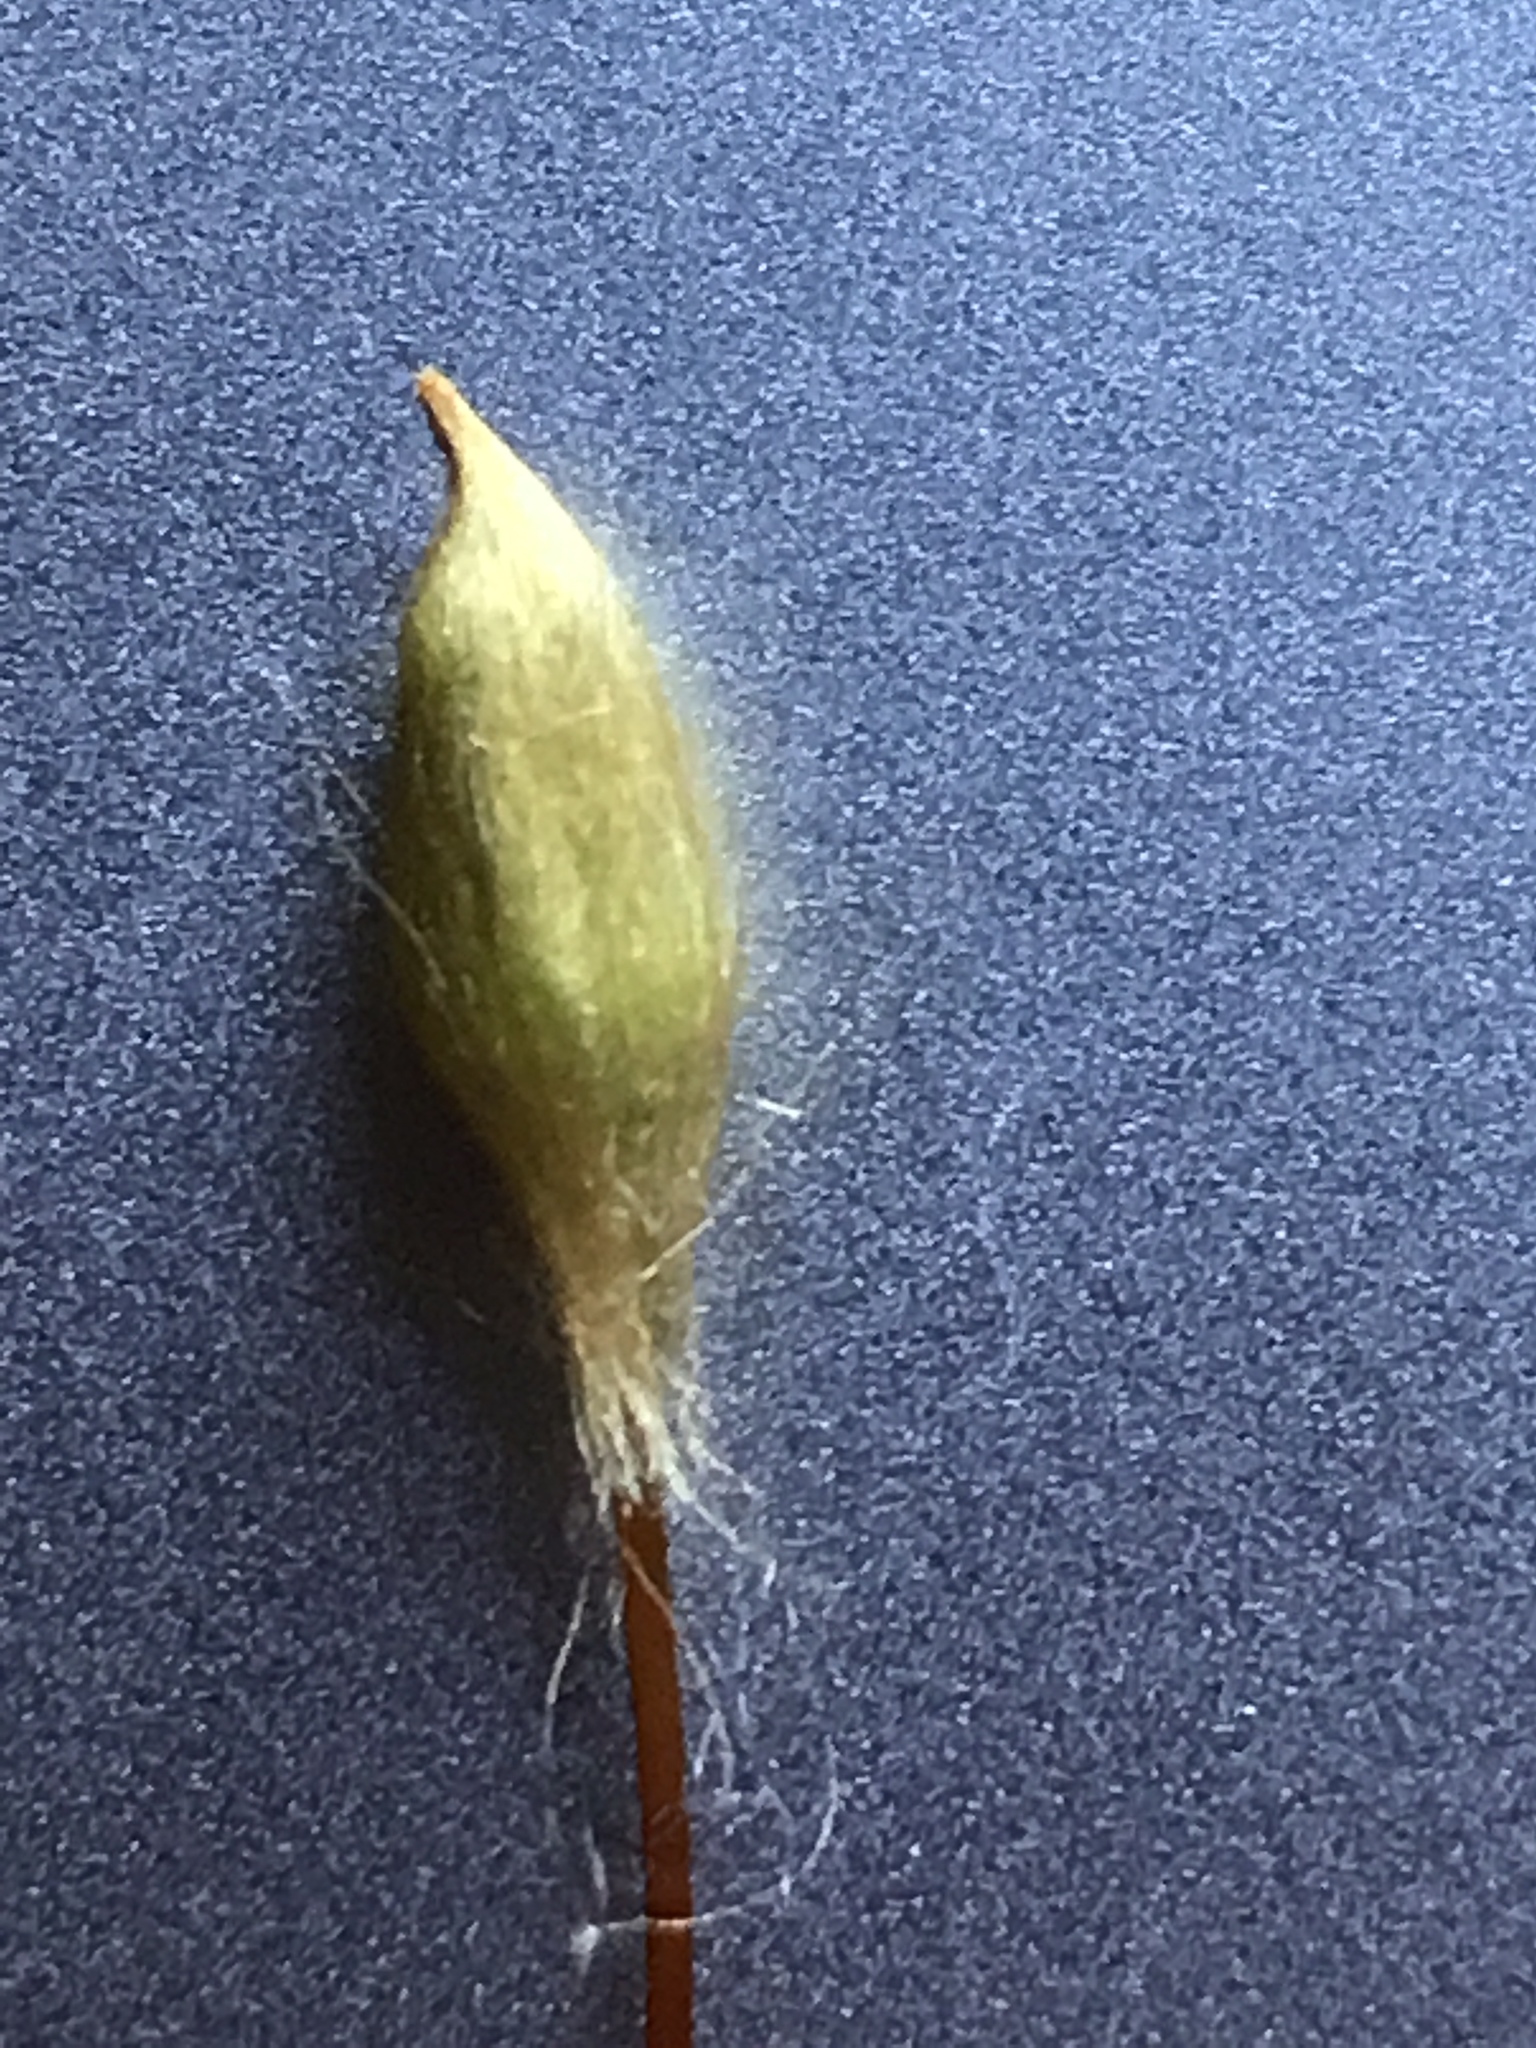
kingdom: Plantae
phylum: Bryophyta
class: Polytrichopsida
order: Polytrichales
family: Polytrichaceae
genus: Polytrichum
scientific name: Polytrichum commune
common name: Common haircap
